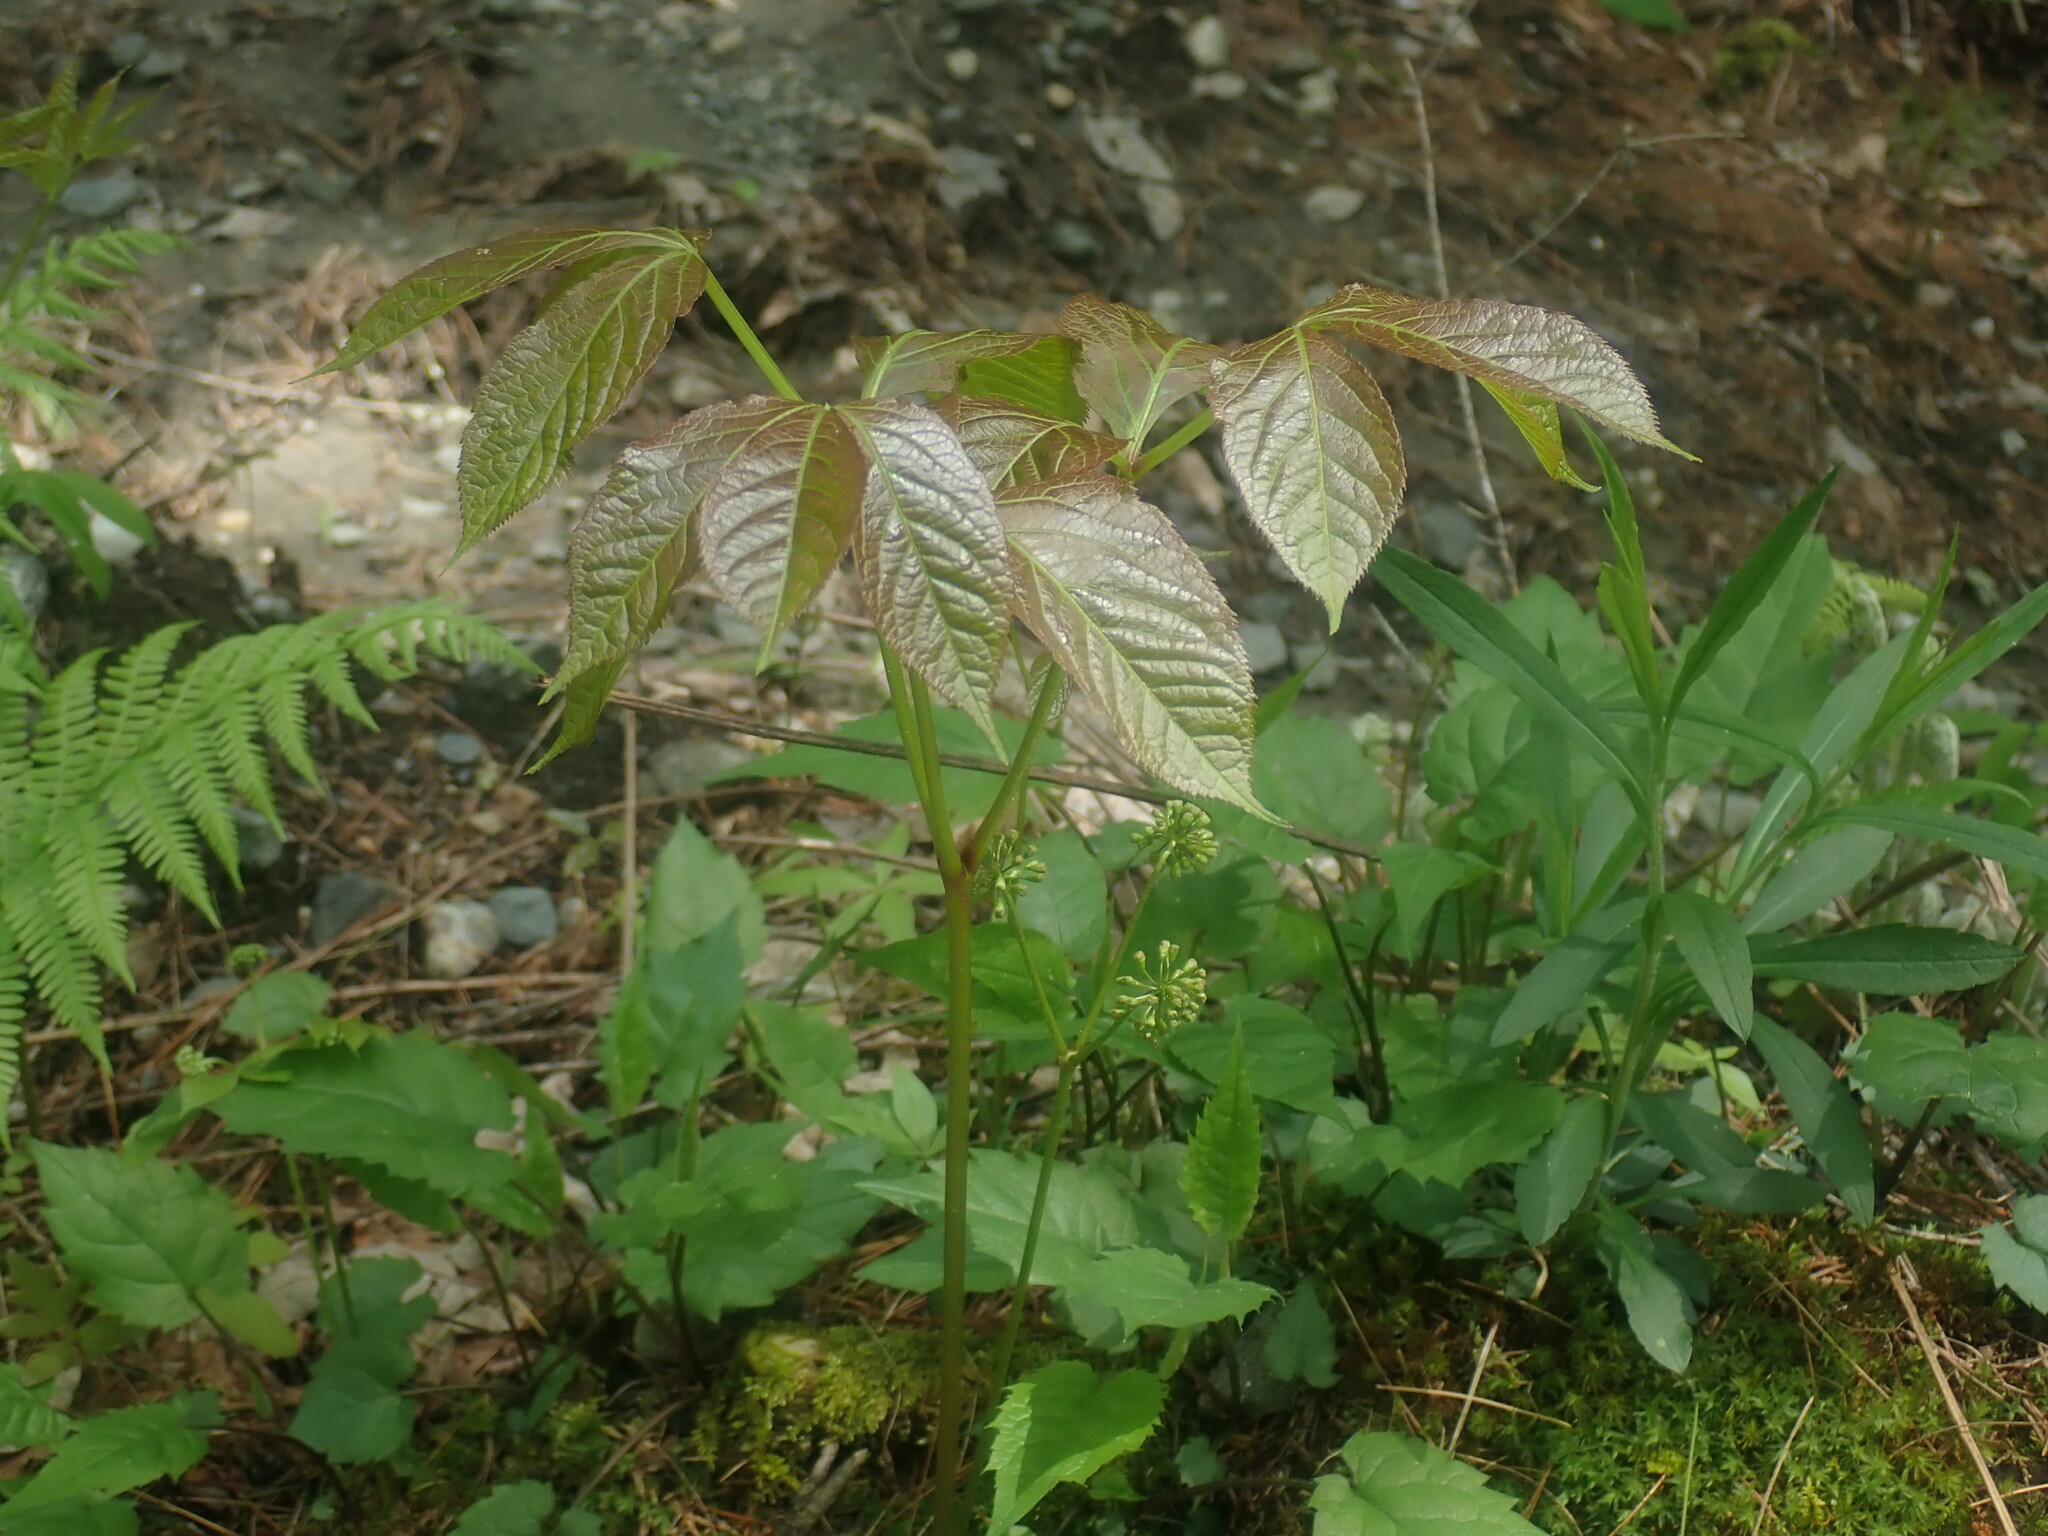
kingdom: Plantae
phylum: Tracheophyta
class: Magnoliopsida
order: Apiales
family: Araliaceae
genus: Aralia
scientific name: Aralia nudicaulis
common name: Wild sarsaparilla
